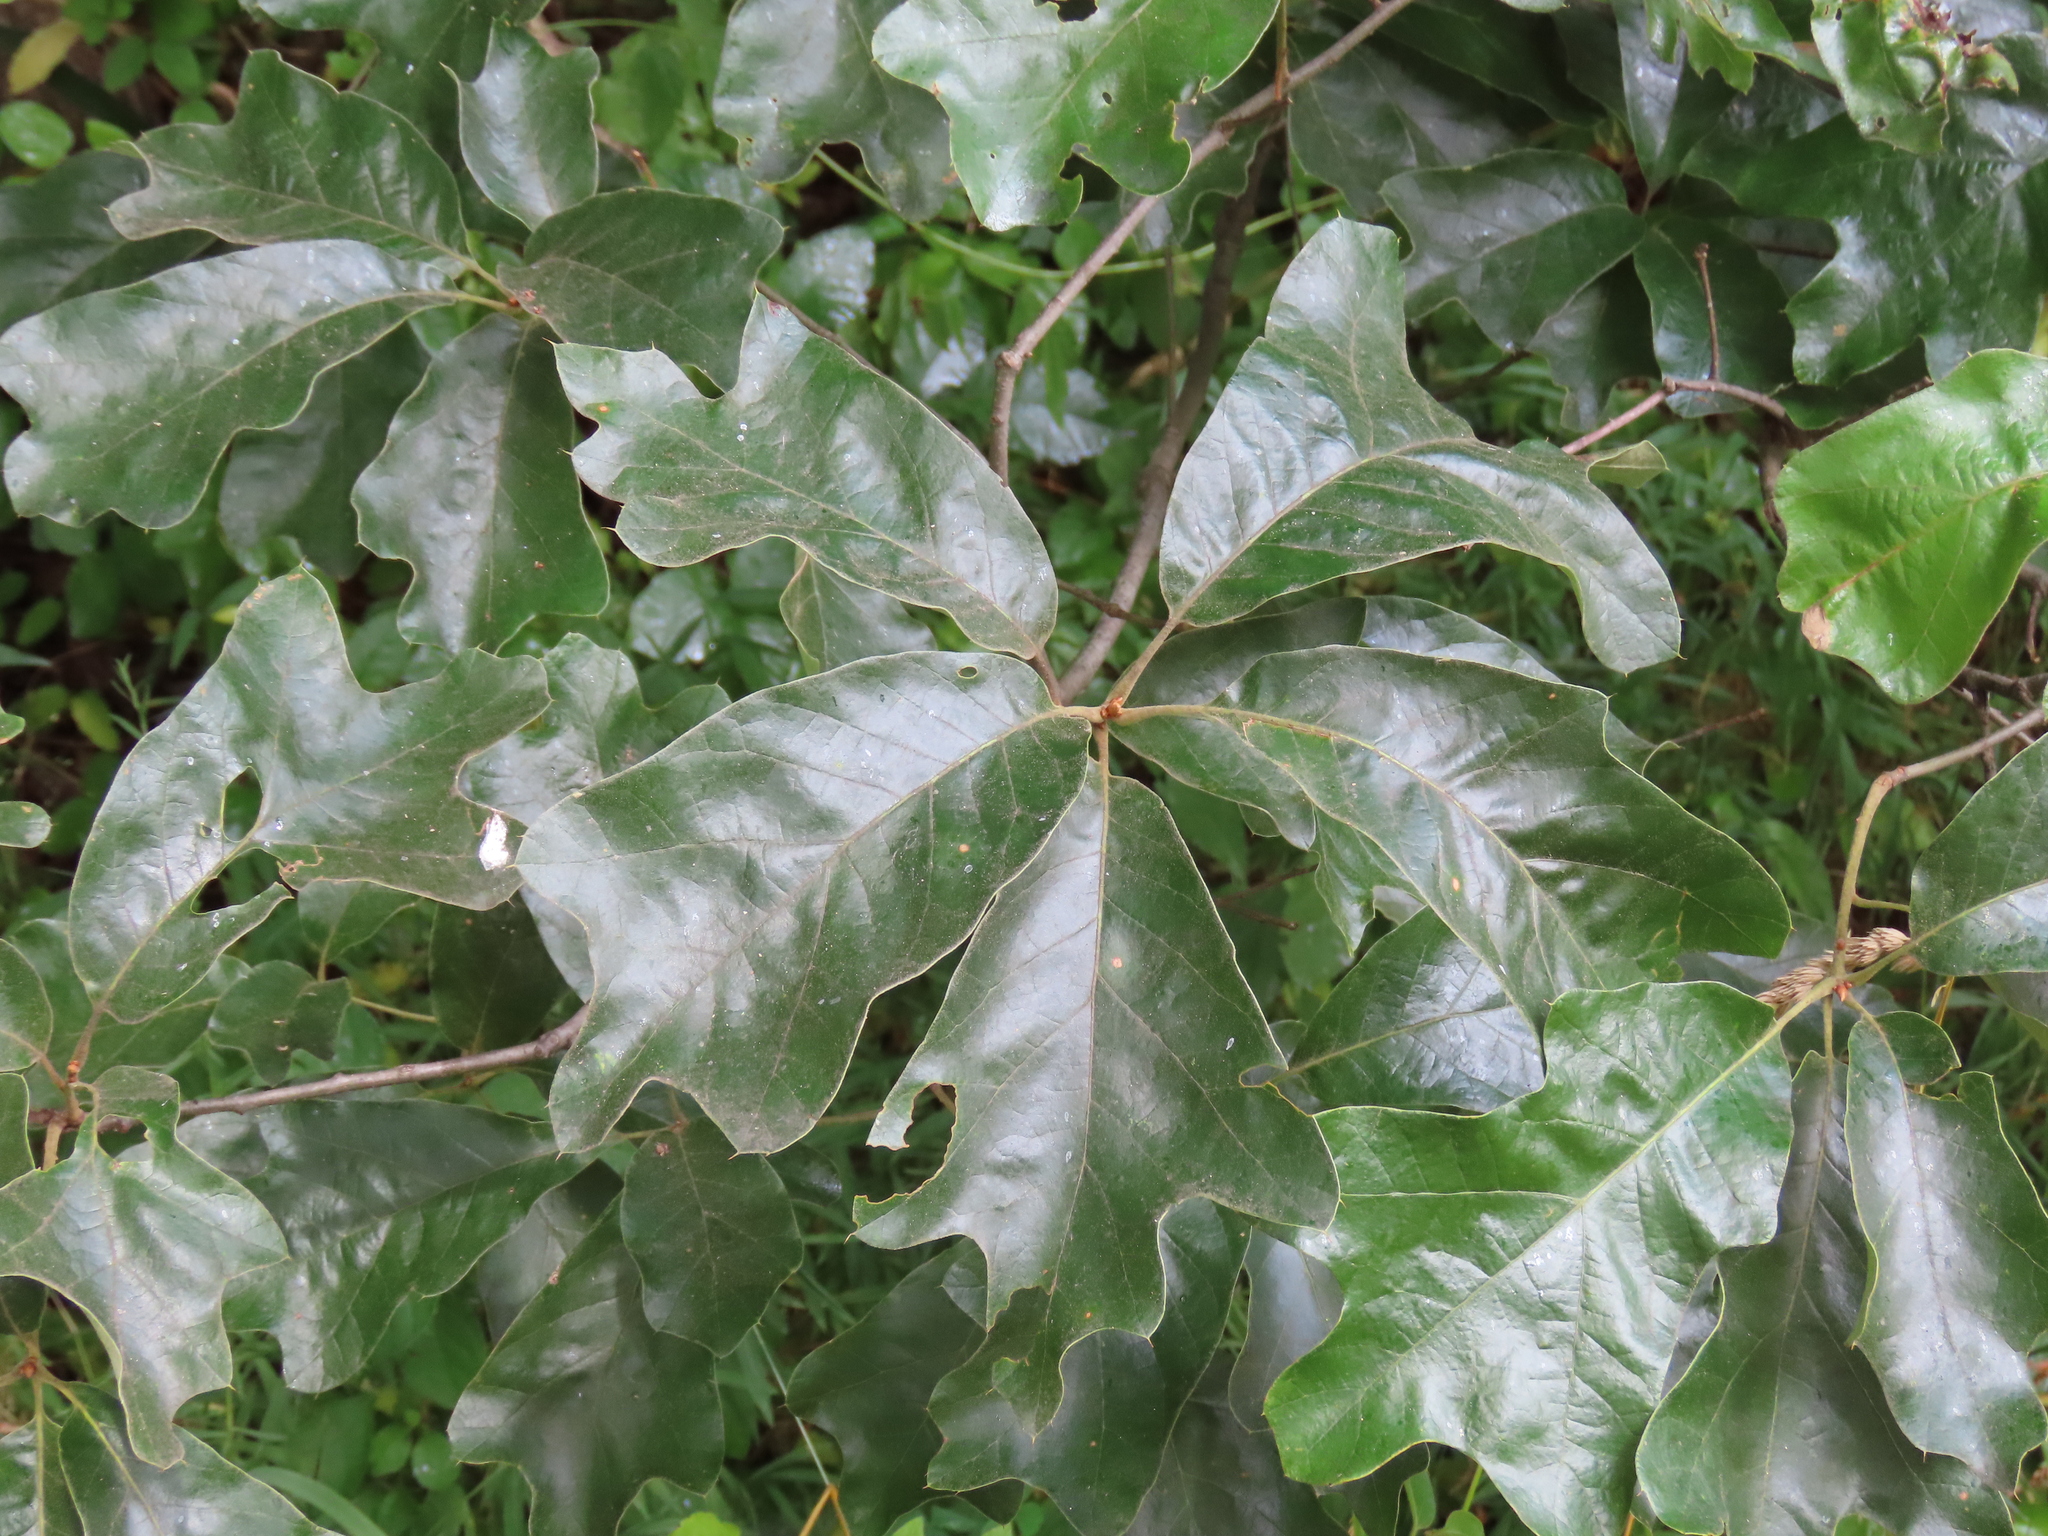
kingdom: Plantae
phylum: Tracheophyta
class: Magnoliopsida
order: Fagales
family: Fagaceae
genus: Quercus
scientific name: Quercus falcata
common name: Southern red oak
